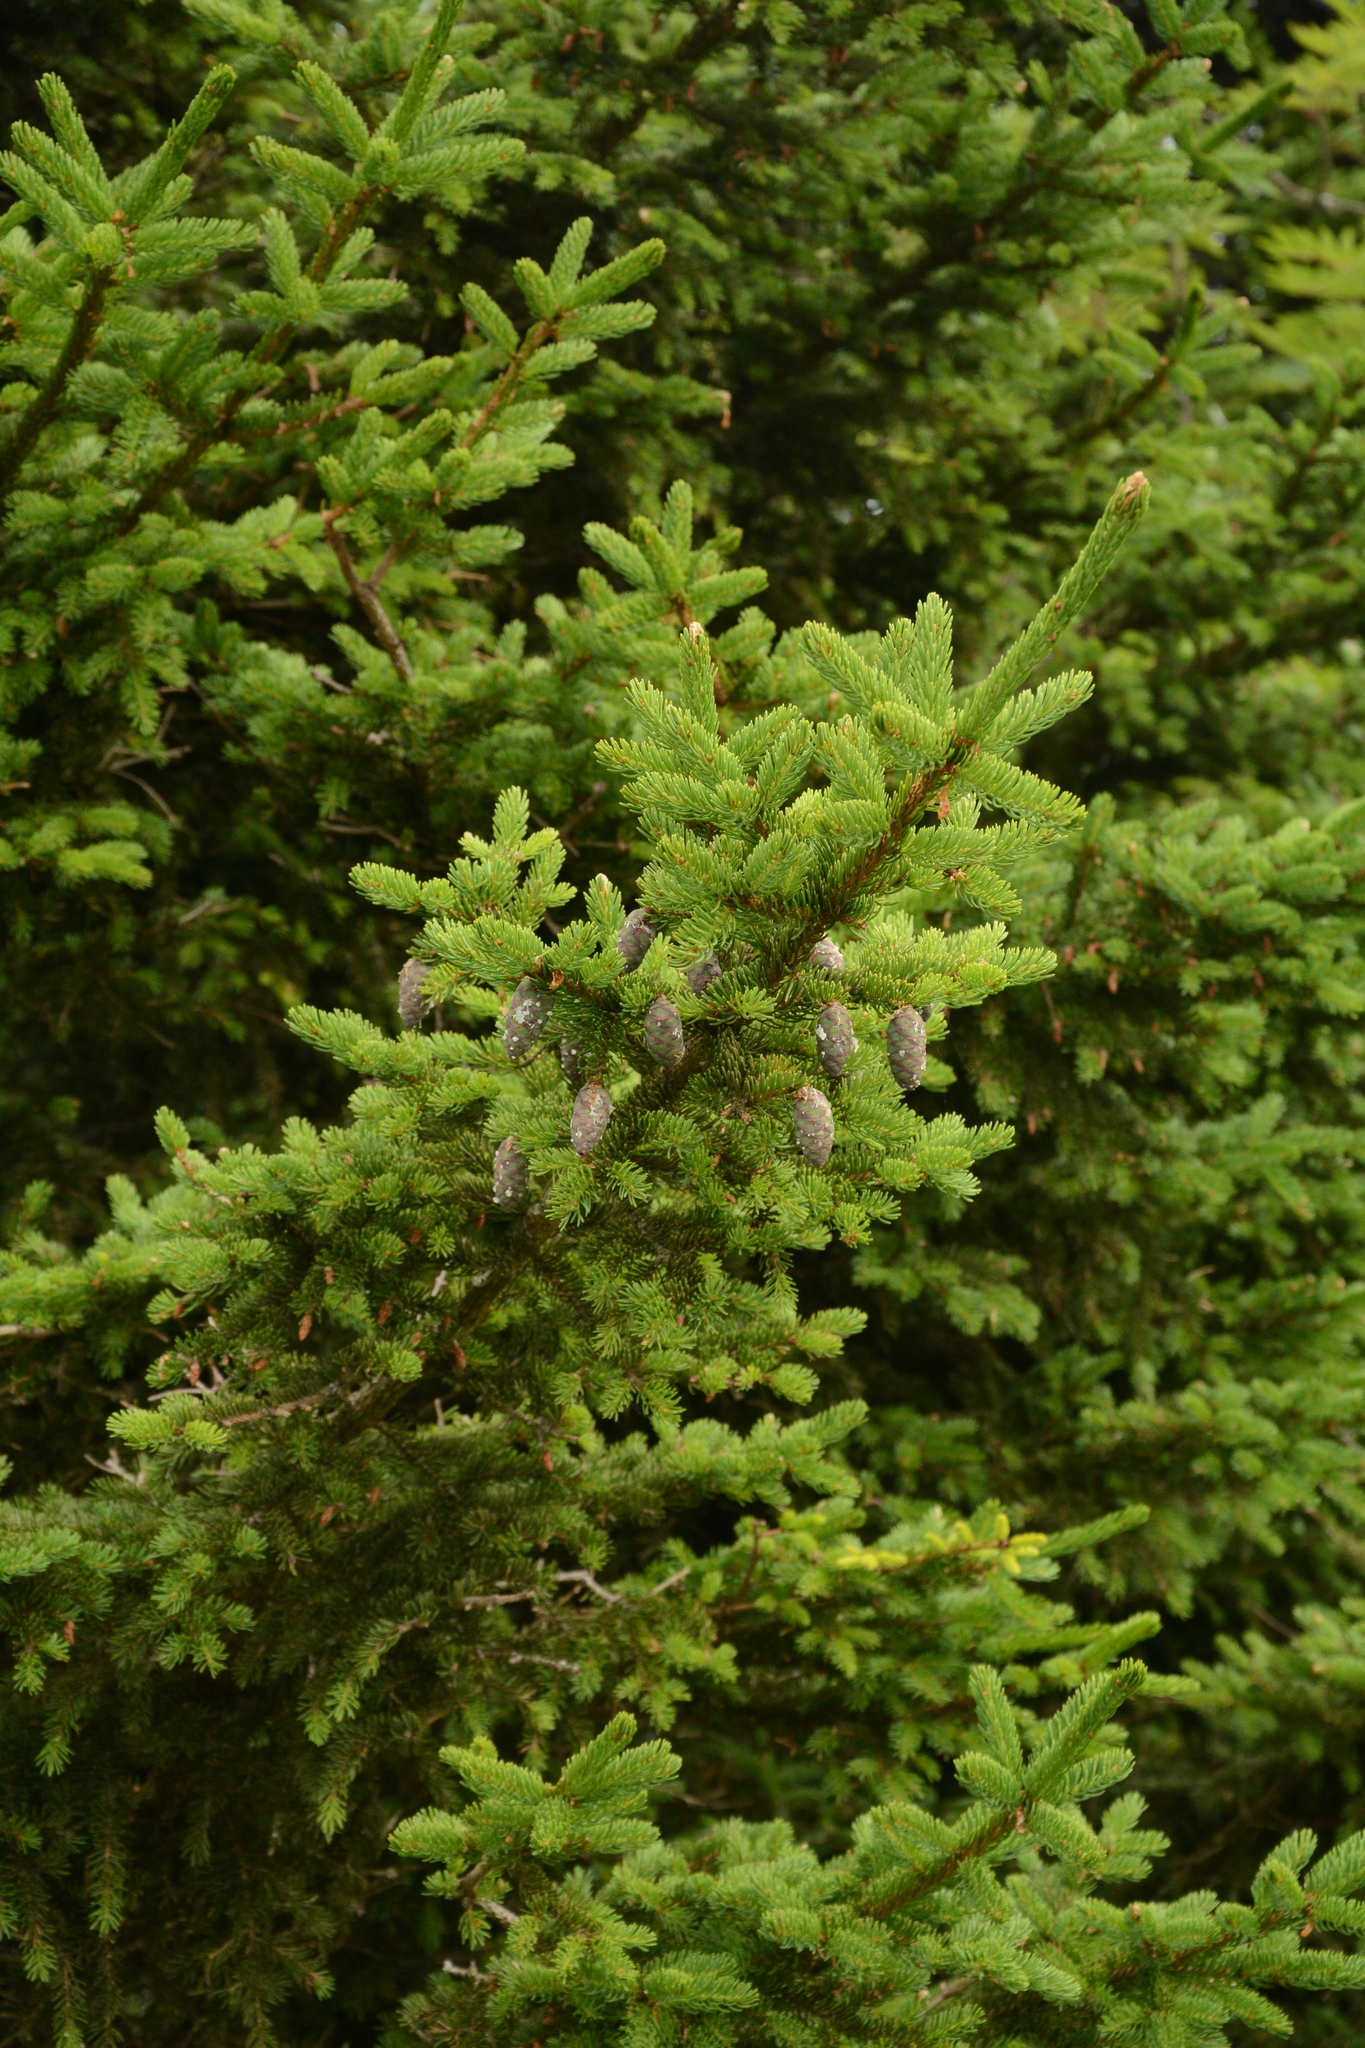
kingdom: Plantae
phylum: Tracheophyta
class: Pinopsida
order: Pinales
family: Pinaceae
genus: Picea
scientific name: Picea rubens
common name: Red spruce
